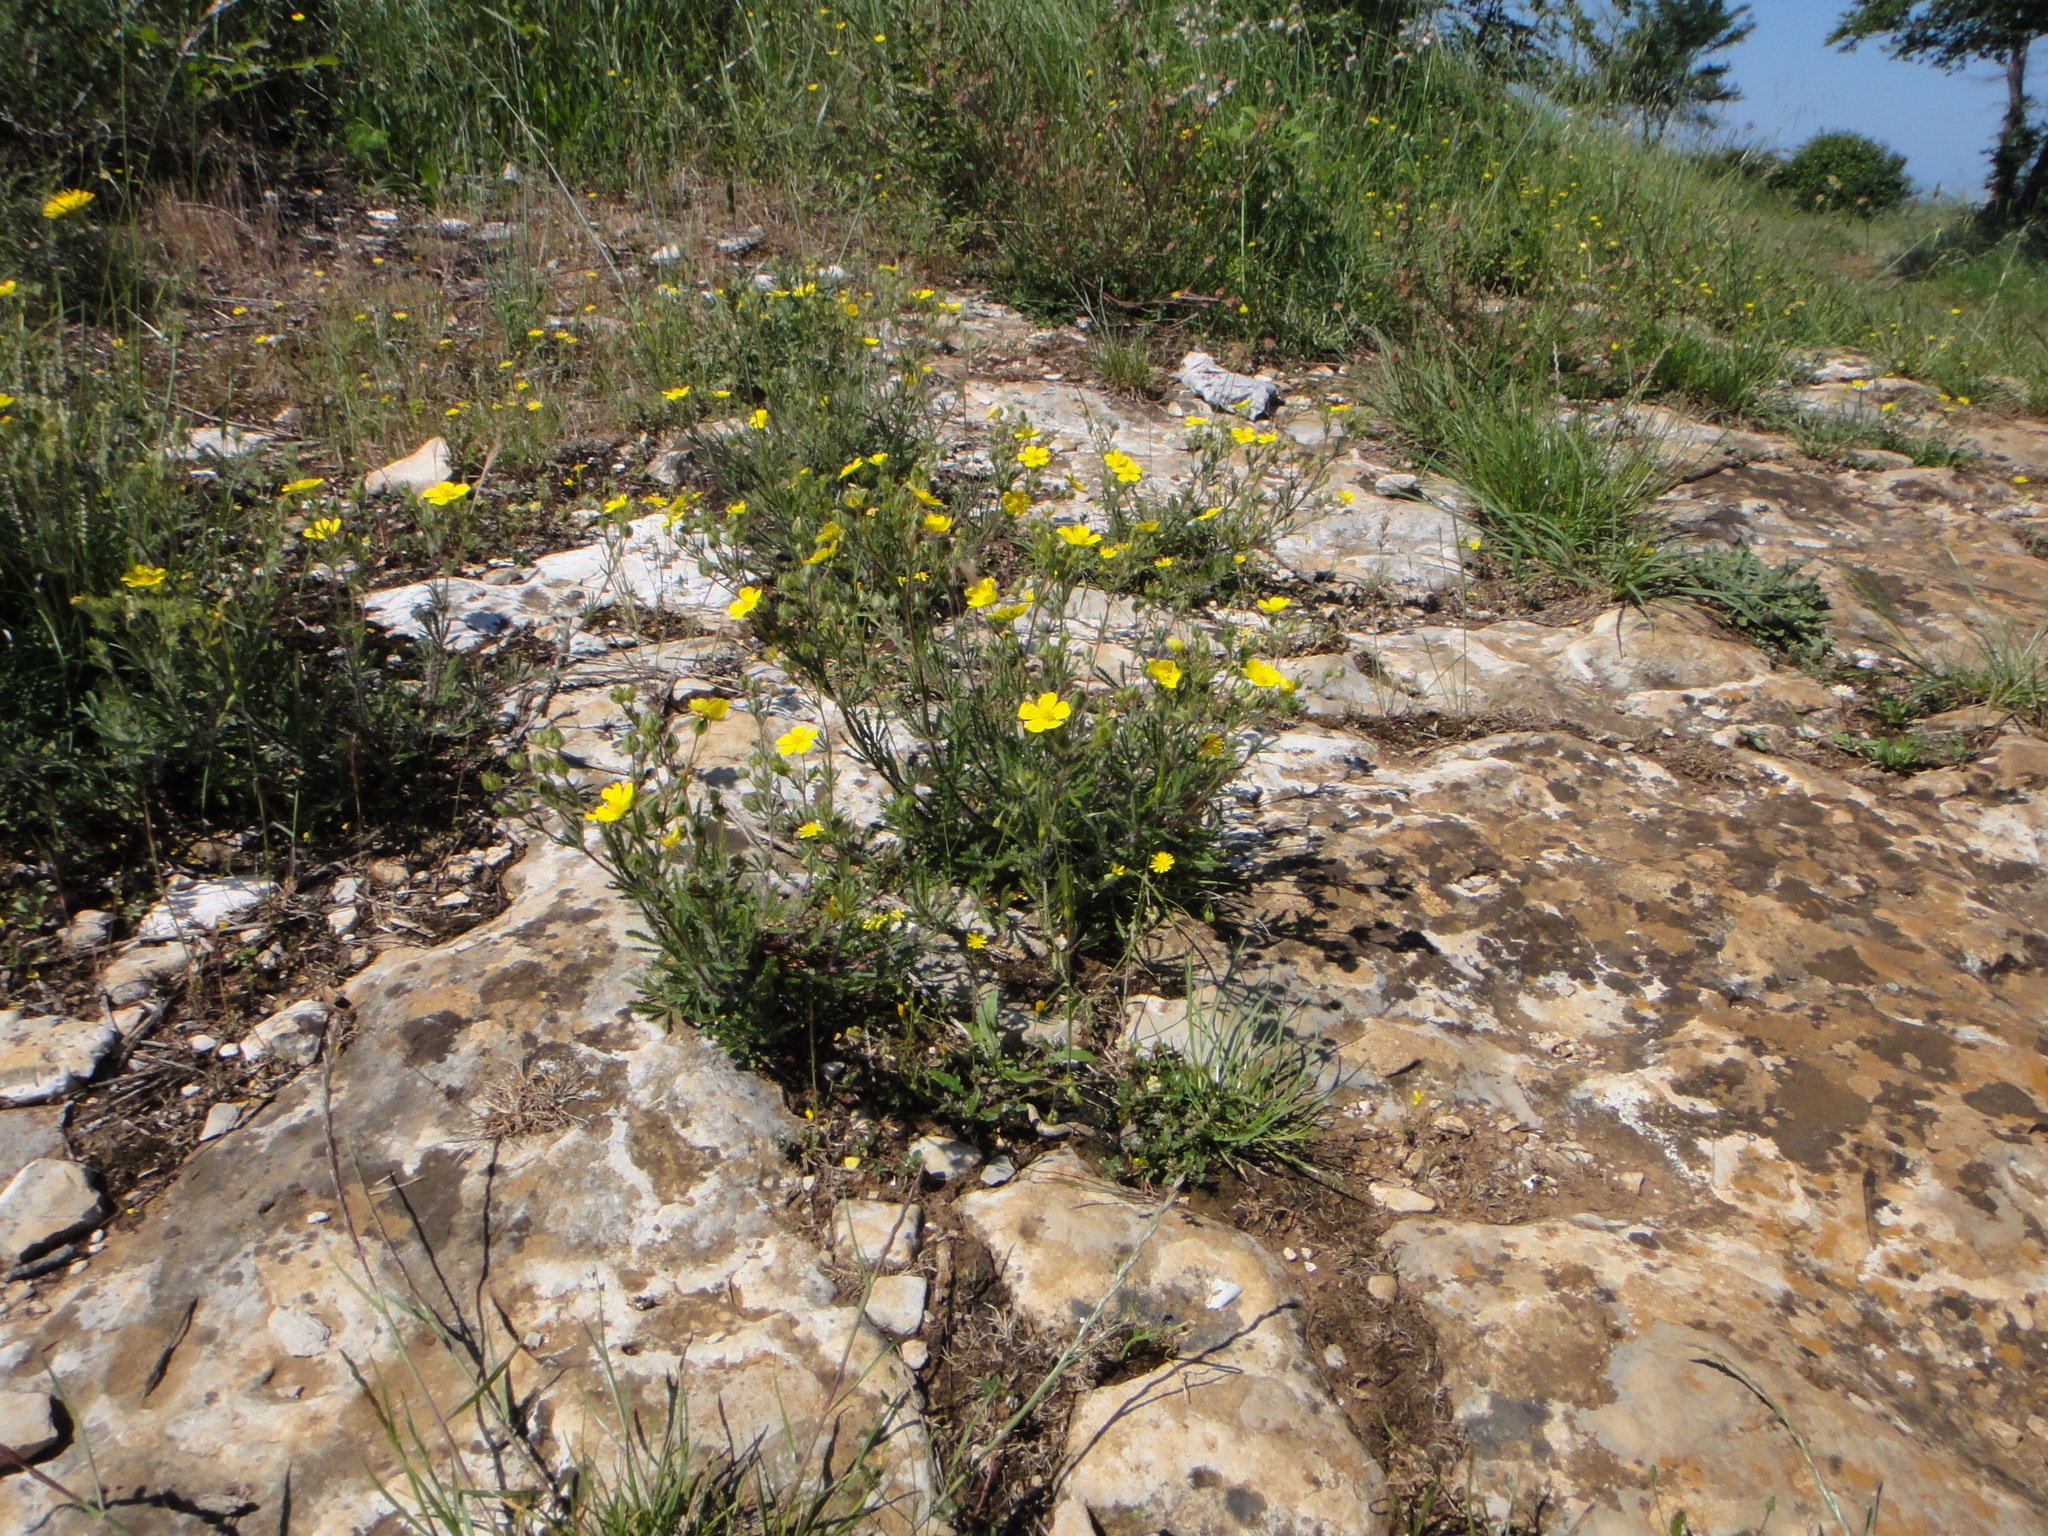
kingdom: Plantae
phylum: Tracheophyta
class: Magnoliopsida
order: Rosales
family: Rosaceae
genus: Potentilla
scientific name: Potentilla recta
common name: Sulphur cinquefoil
